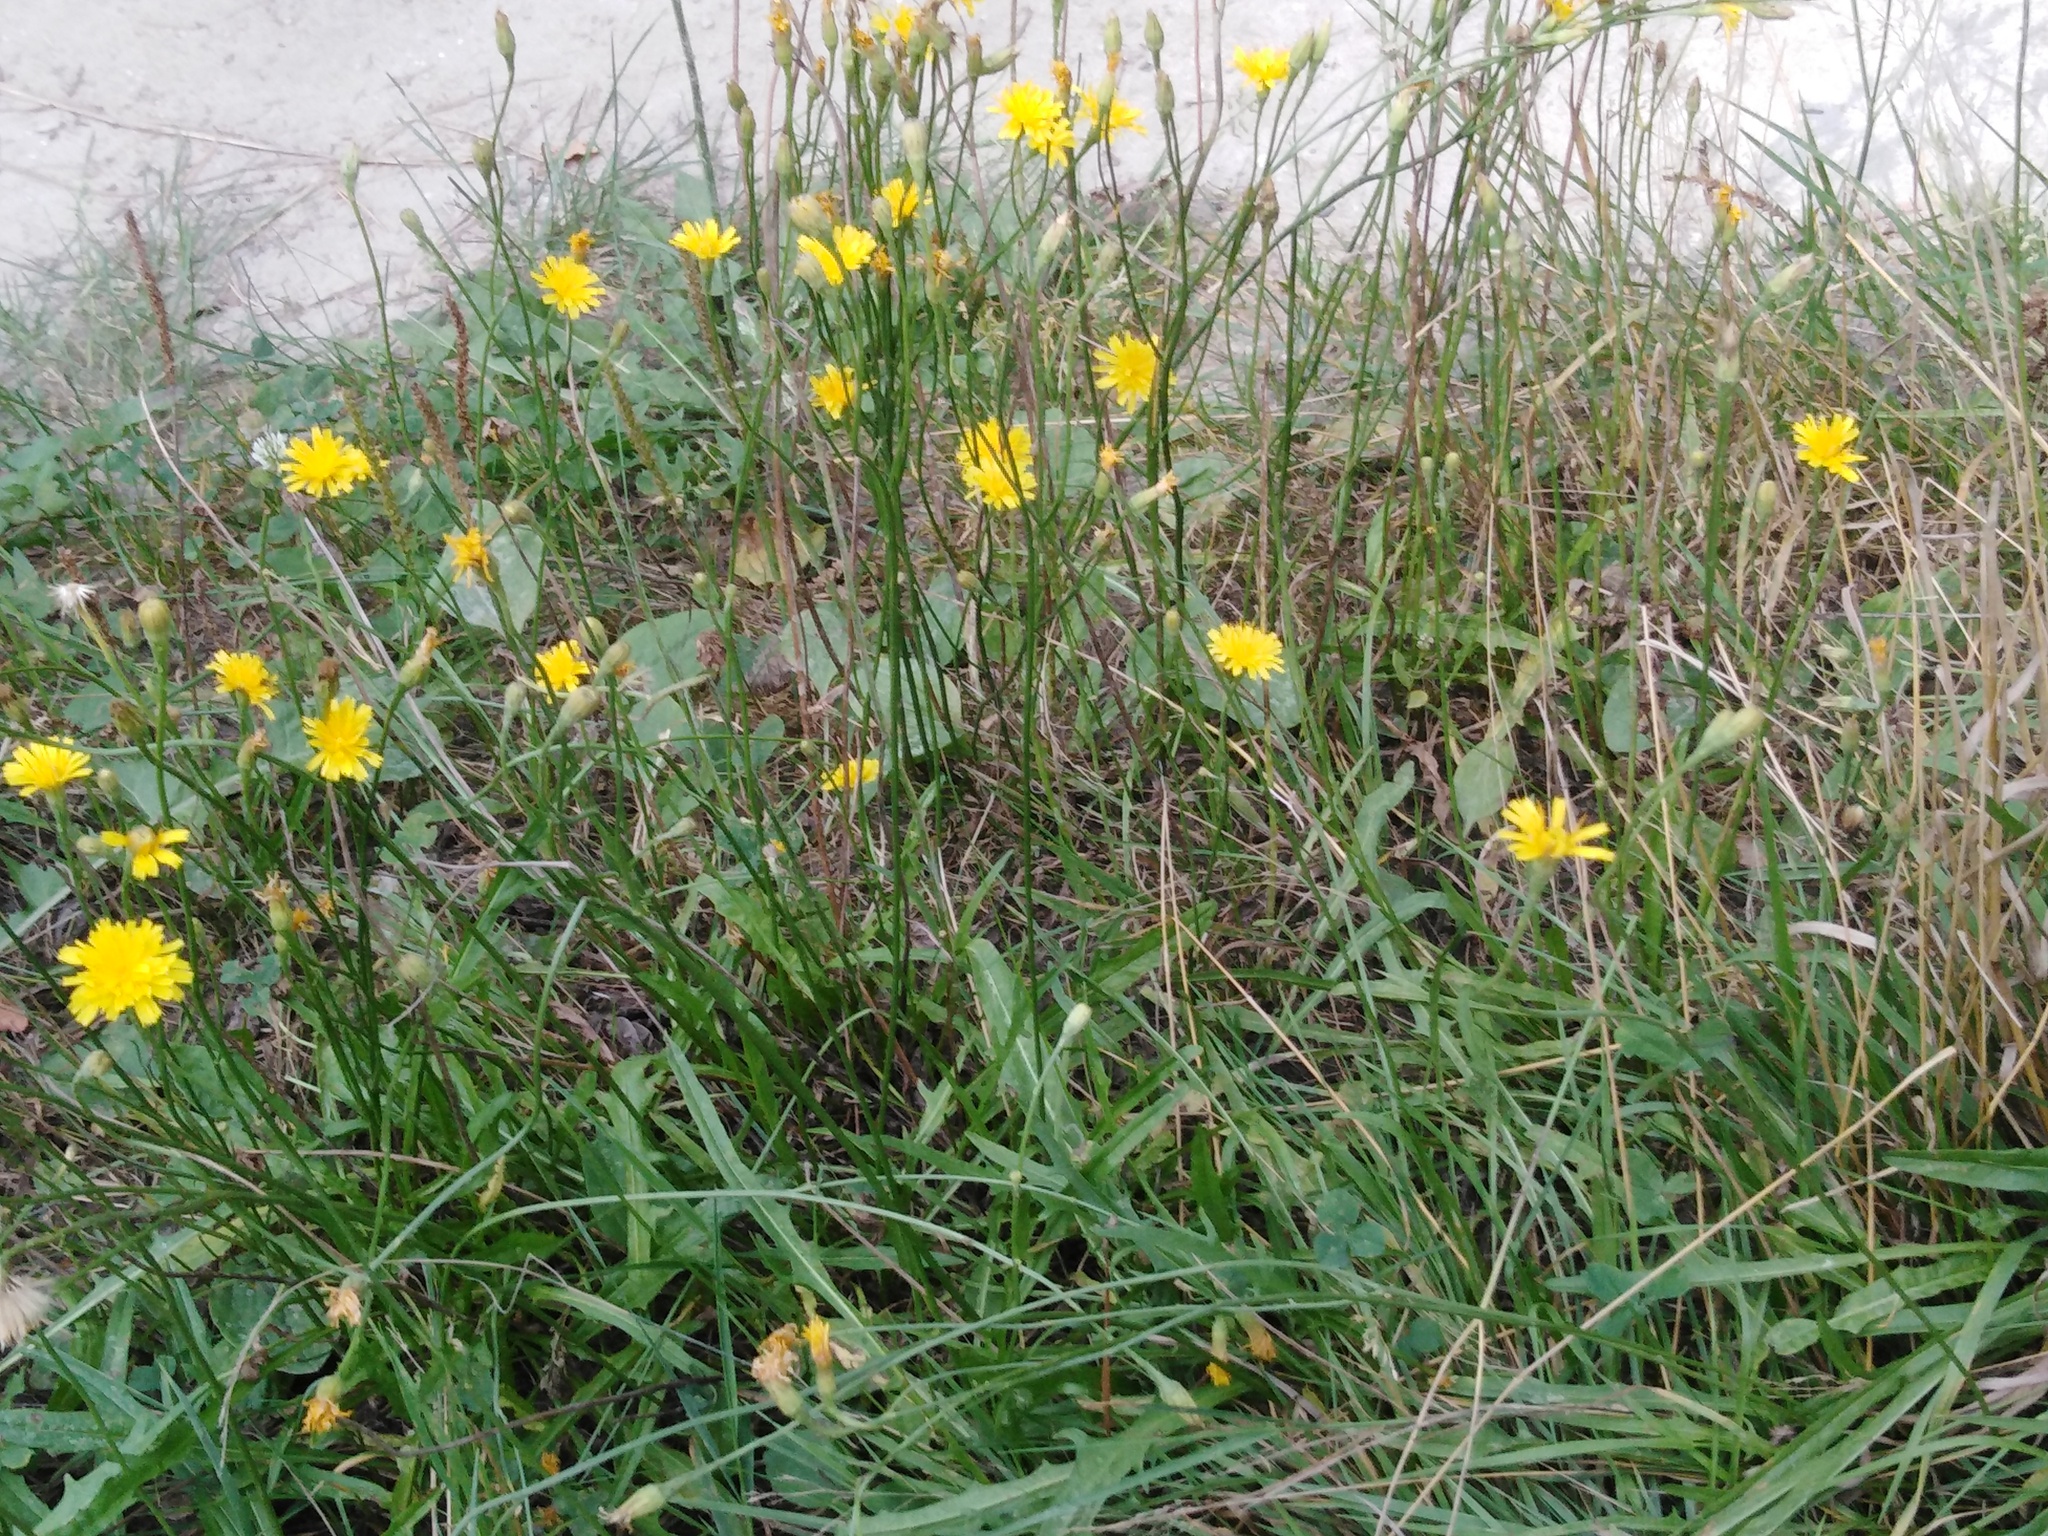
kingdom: Plantae
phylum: Tracheophyta
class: Magnoliopsida
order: Asterales
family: Asteraceae
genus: Scorzoneroides
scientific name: Scorzoneroides autumnalis
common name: Autumn hawkbit
